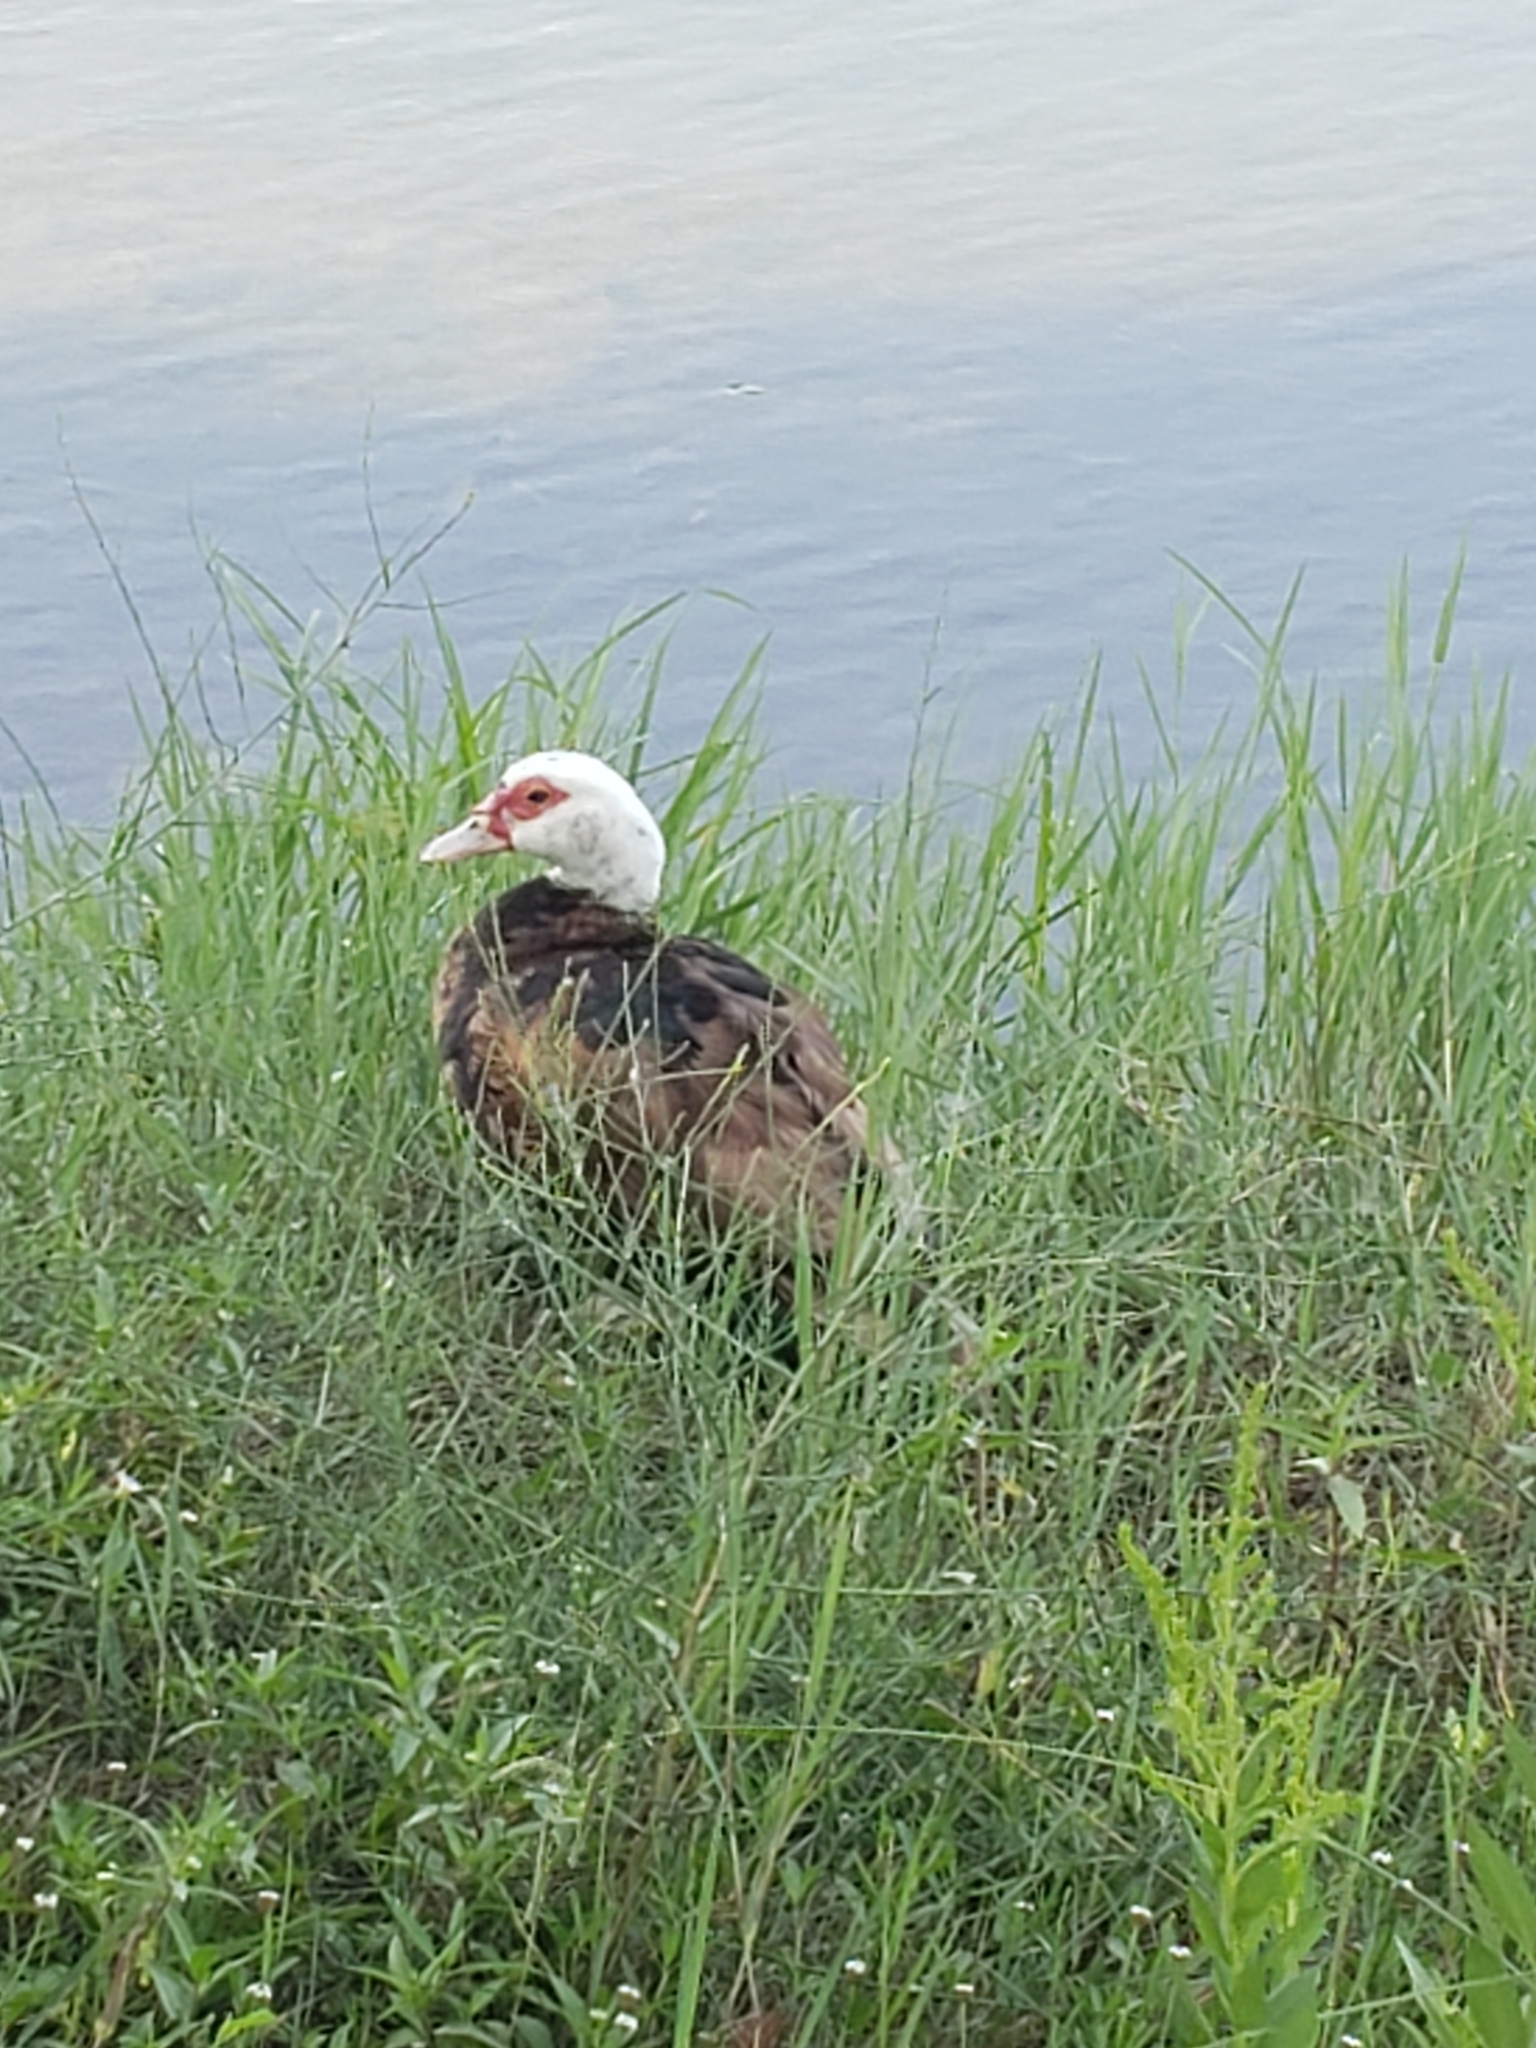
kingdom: Animalia
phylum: Chordata
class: Aves
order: Anseriformes
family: Anatidae
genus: Cairina
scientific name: Cairina moschata
